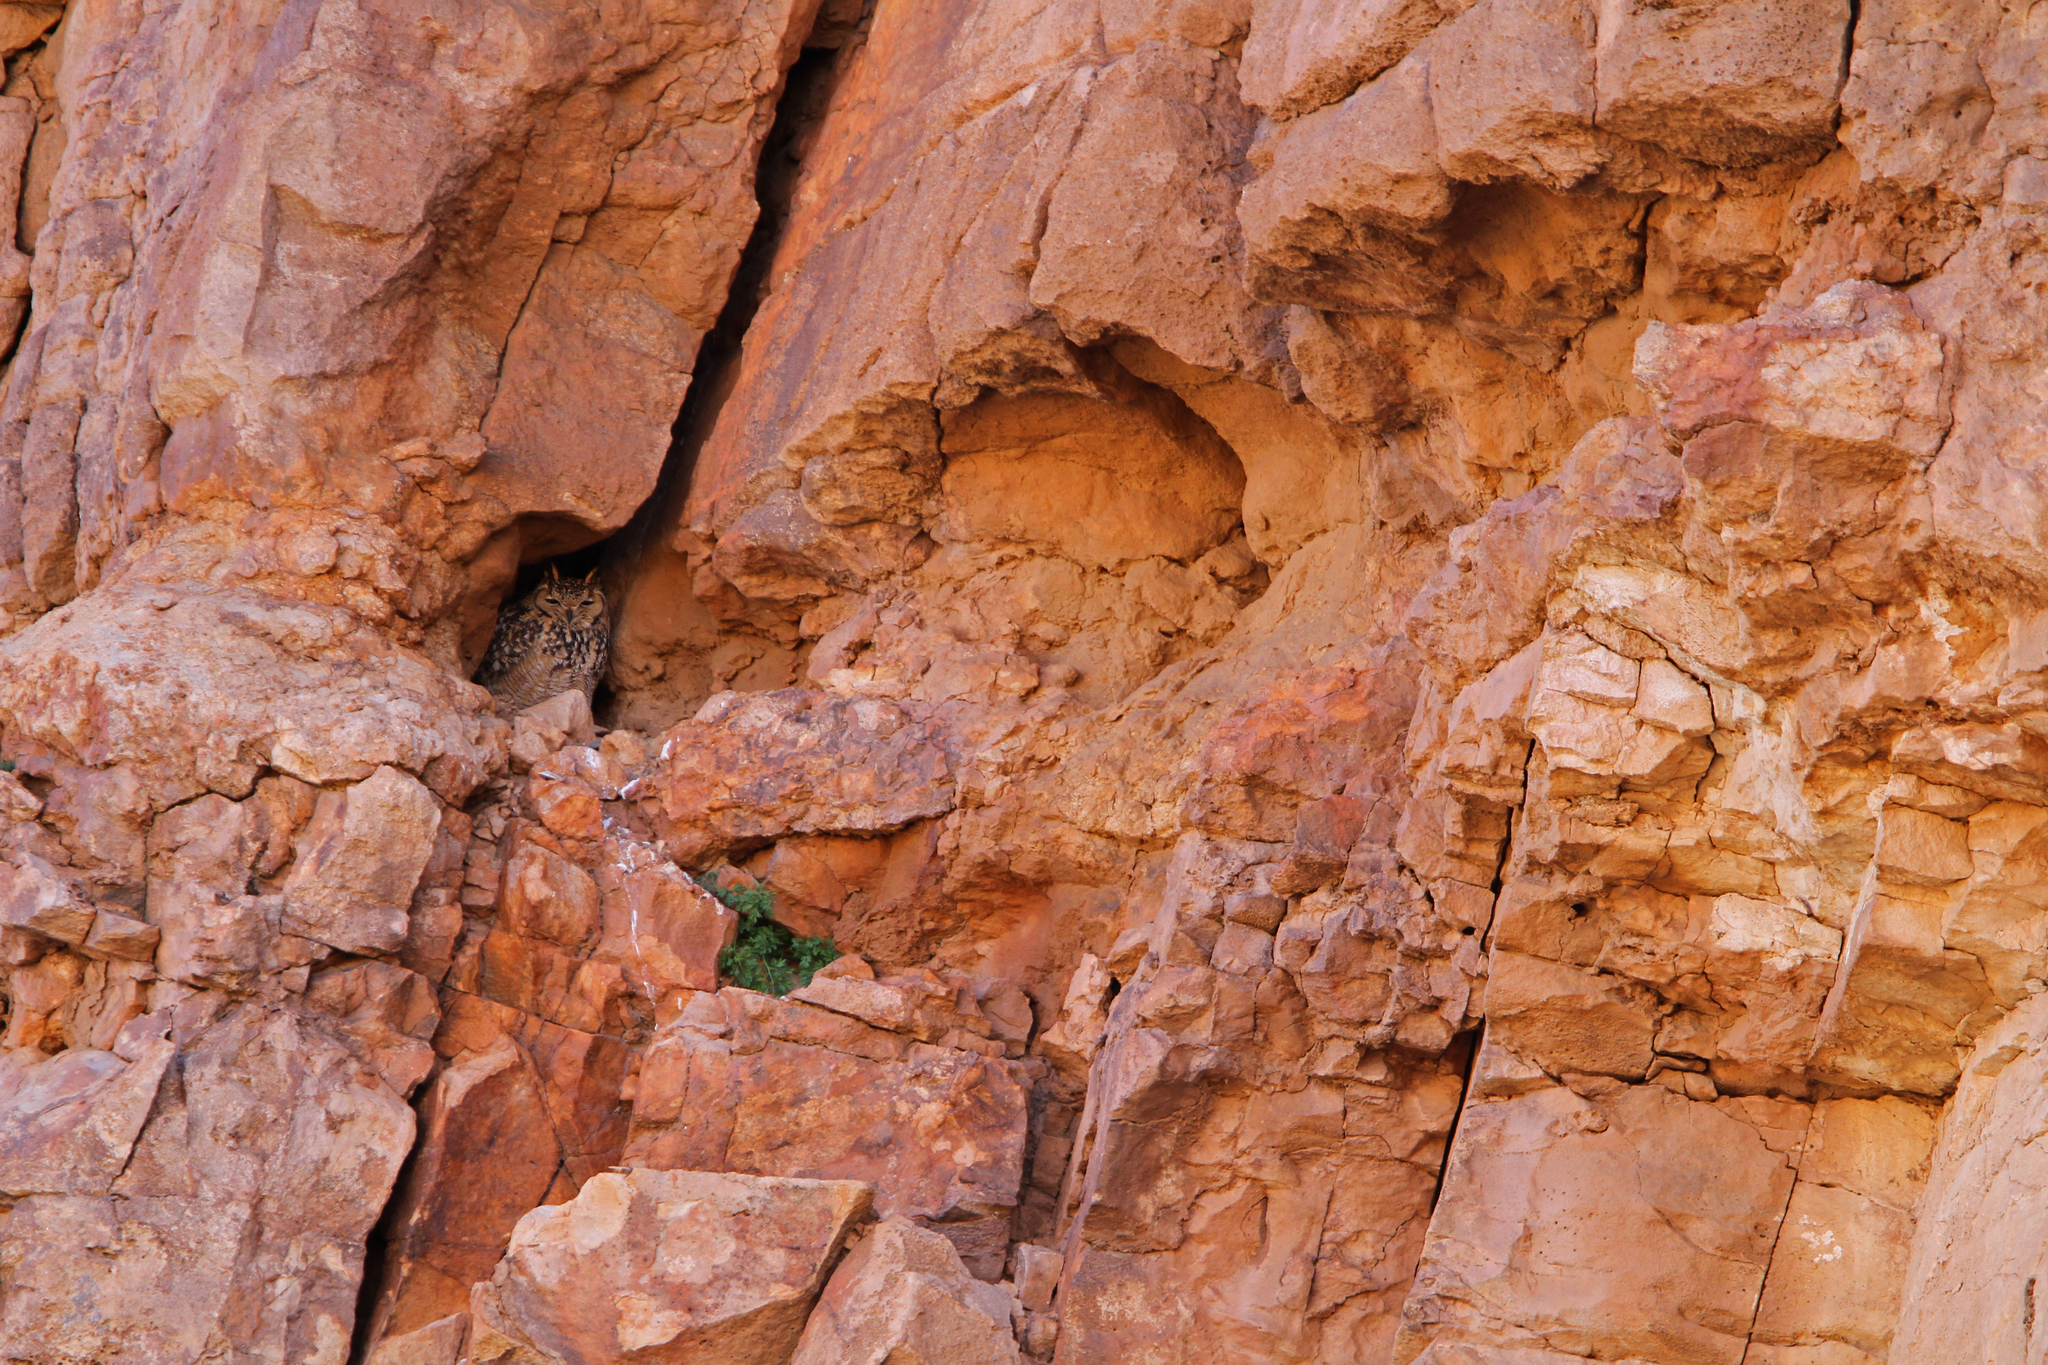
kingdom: Animalia
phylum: Chordata
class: Aves
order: Strigiformes
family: Strigidae
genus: Bubo
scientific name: Bubo ascalaphus
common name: Pharaoh eagle-owl
